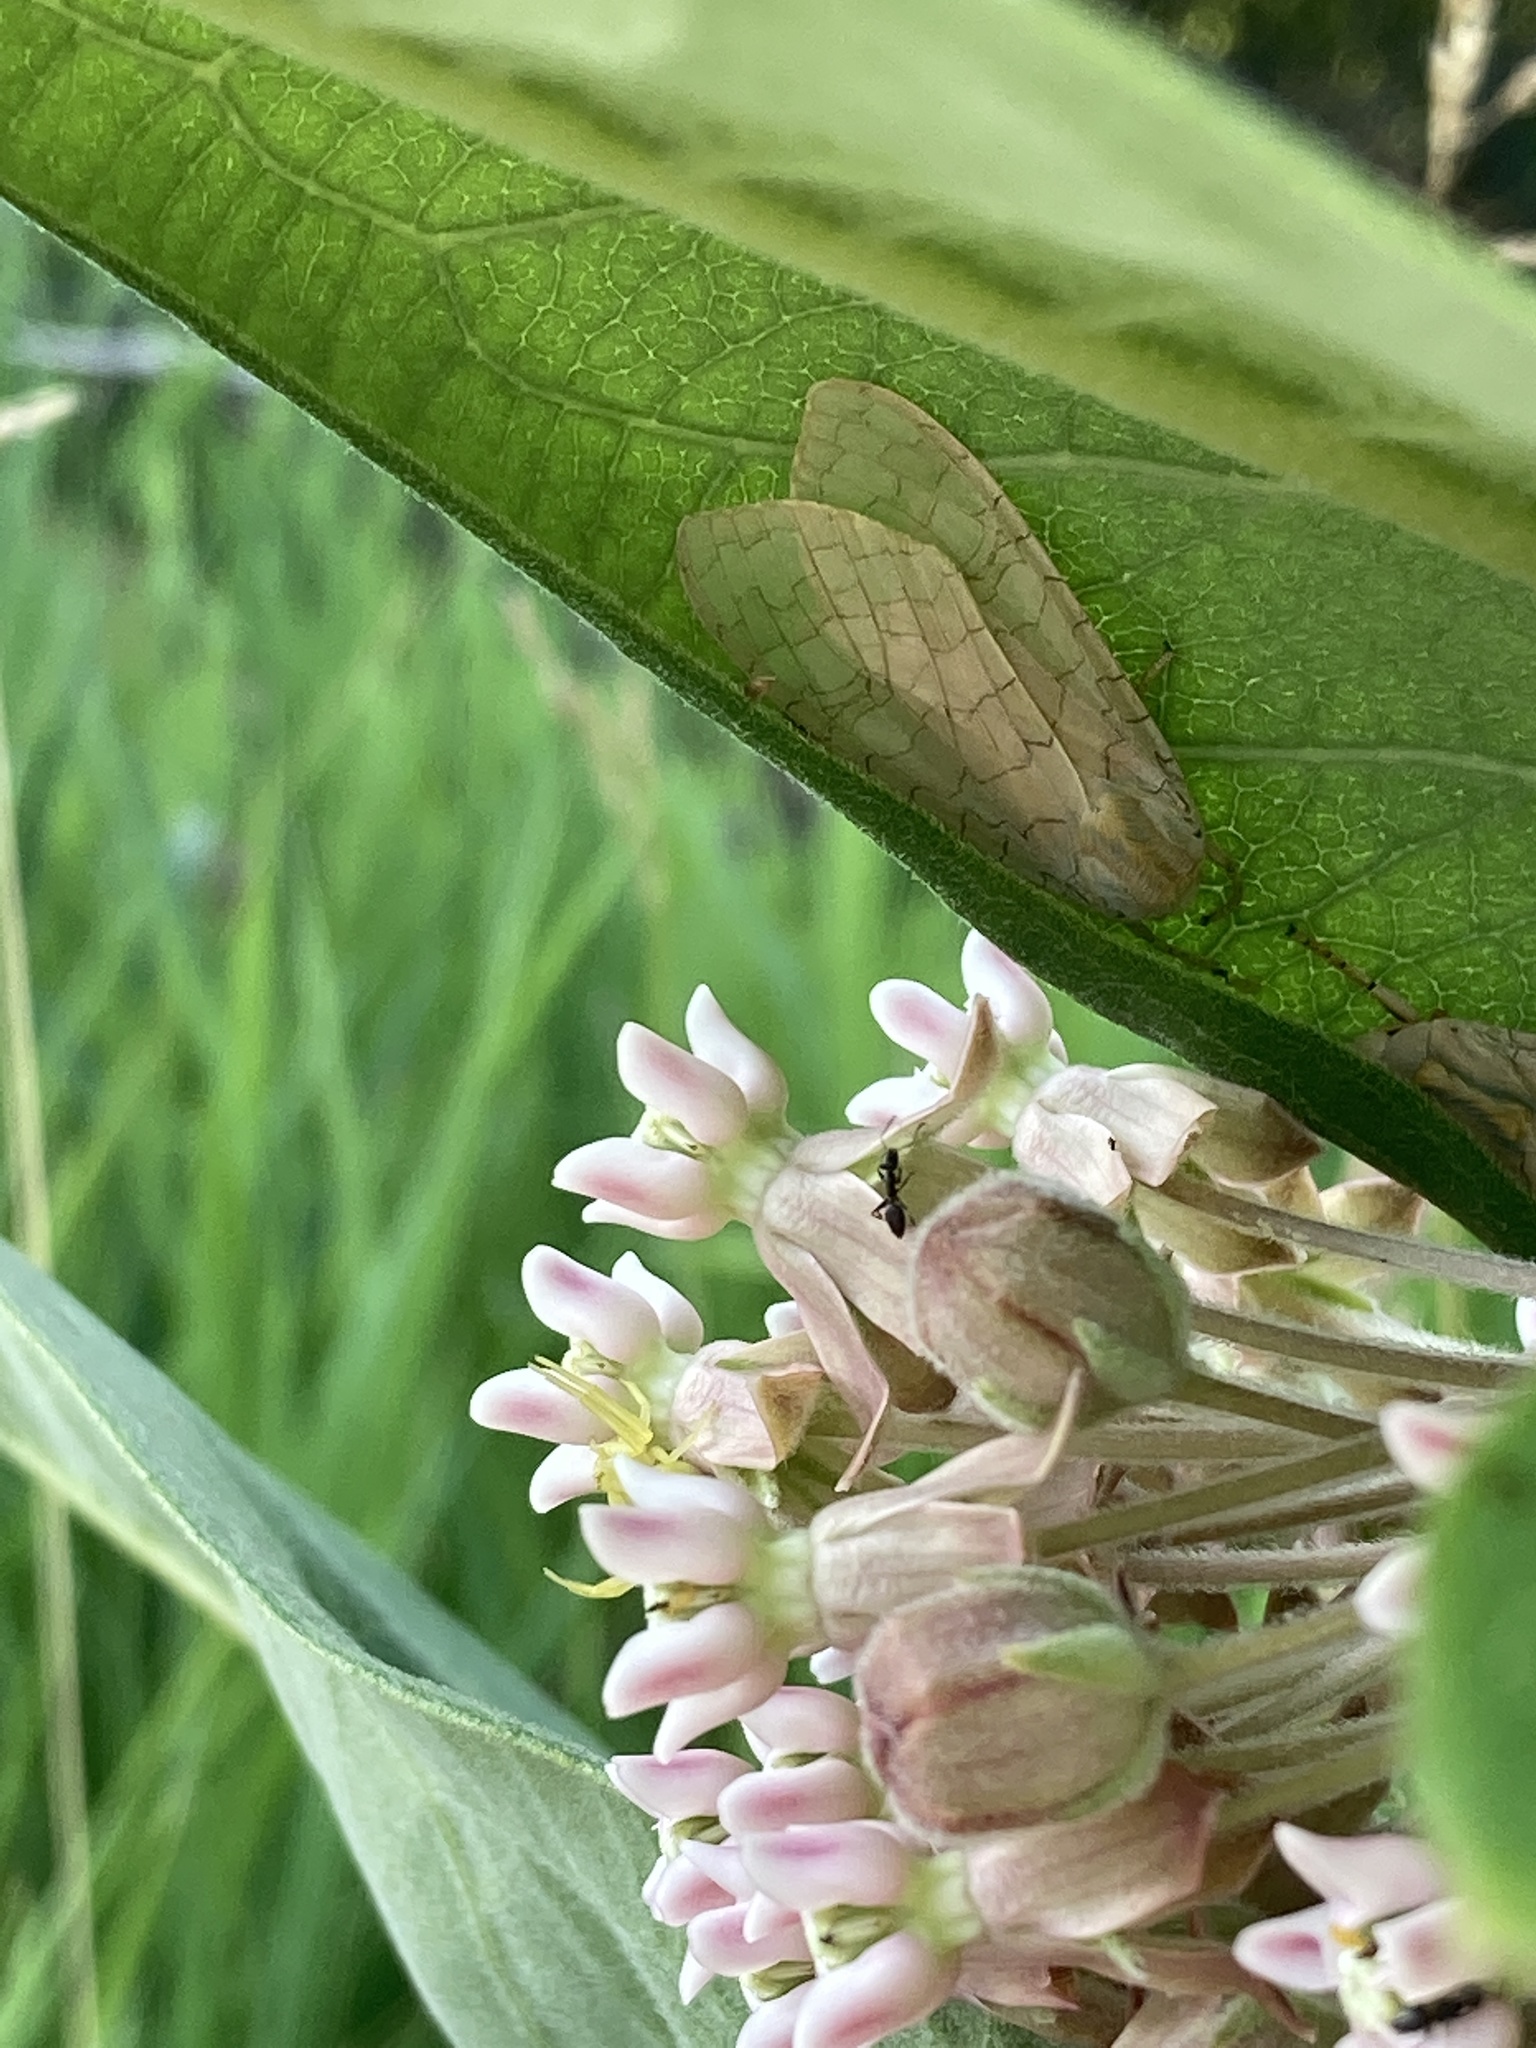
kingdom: Animalia
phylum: Arthropoda
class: Insecta
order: Lepidoptera
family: Erebidae
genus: Halysidota
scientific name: Halysidota tessellaris
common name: Banded tussock moth
